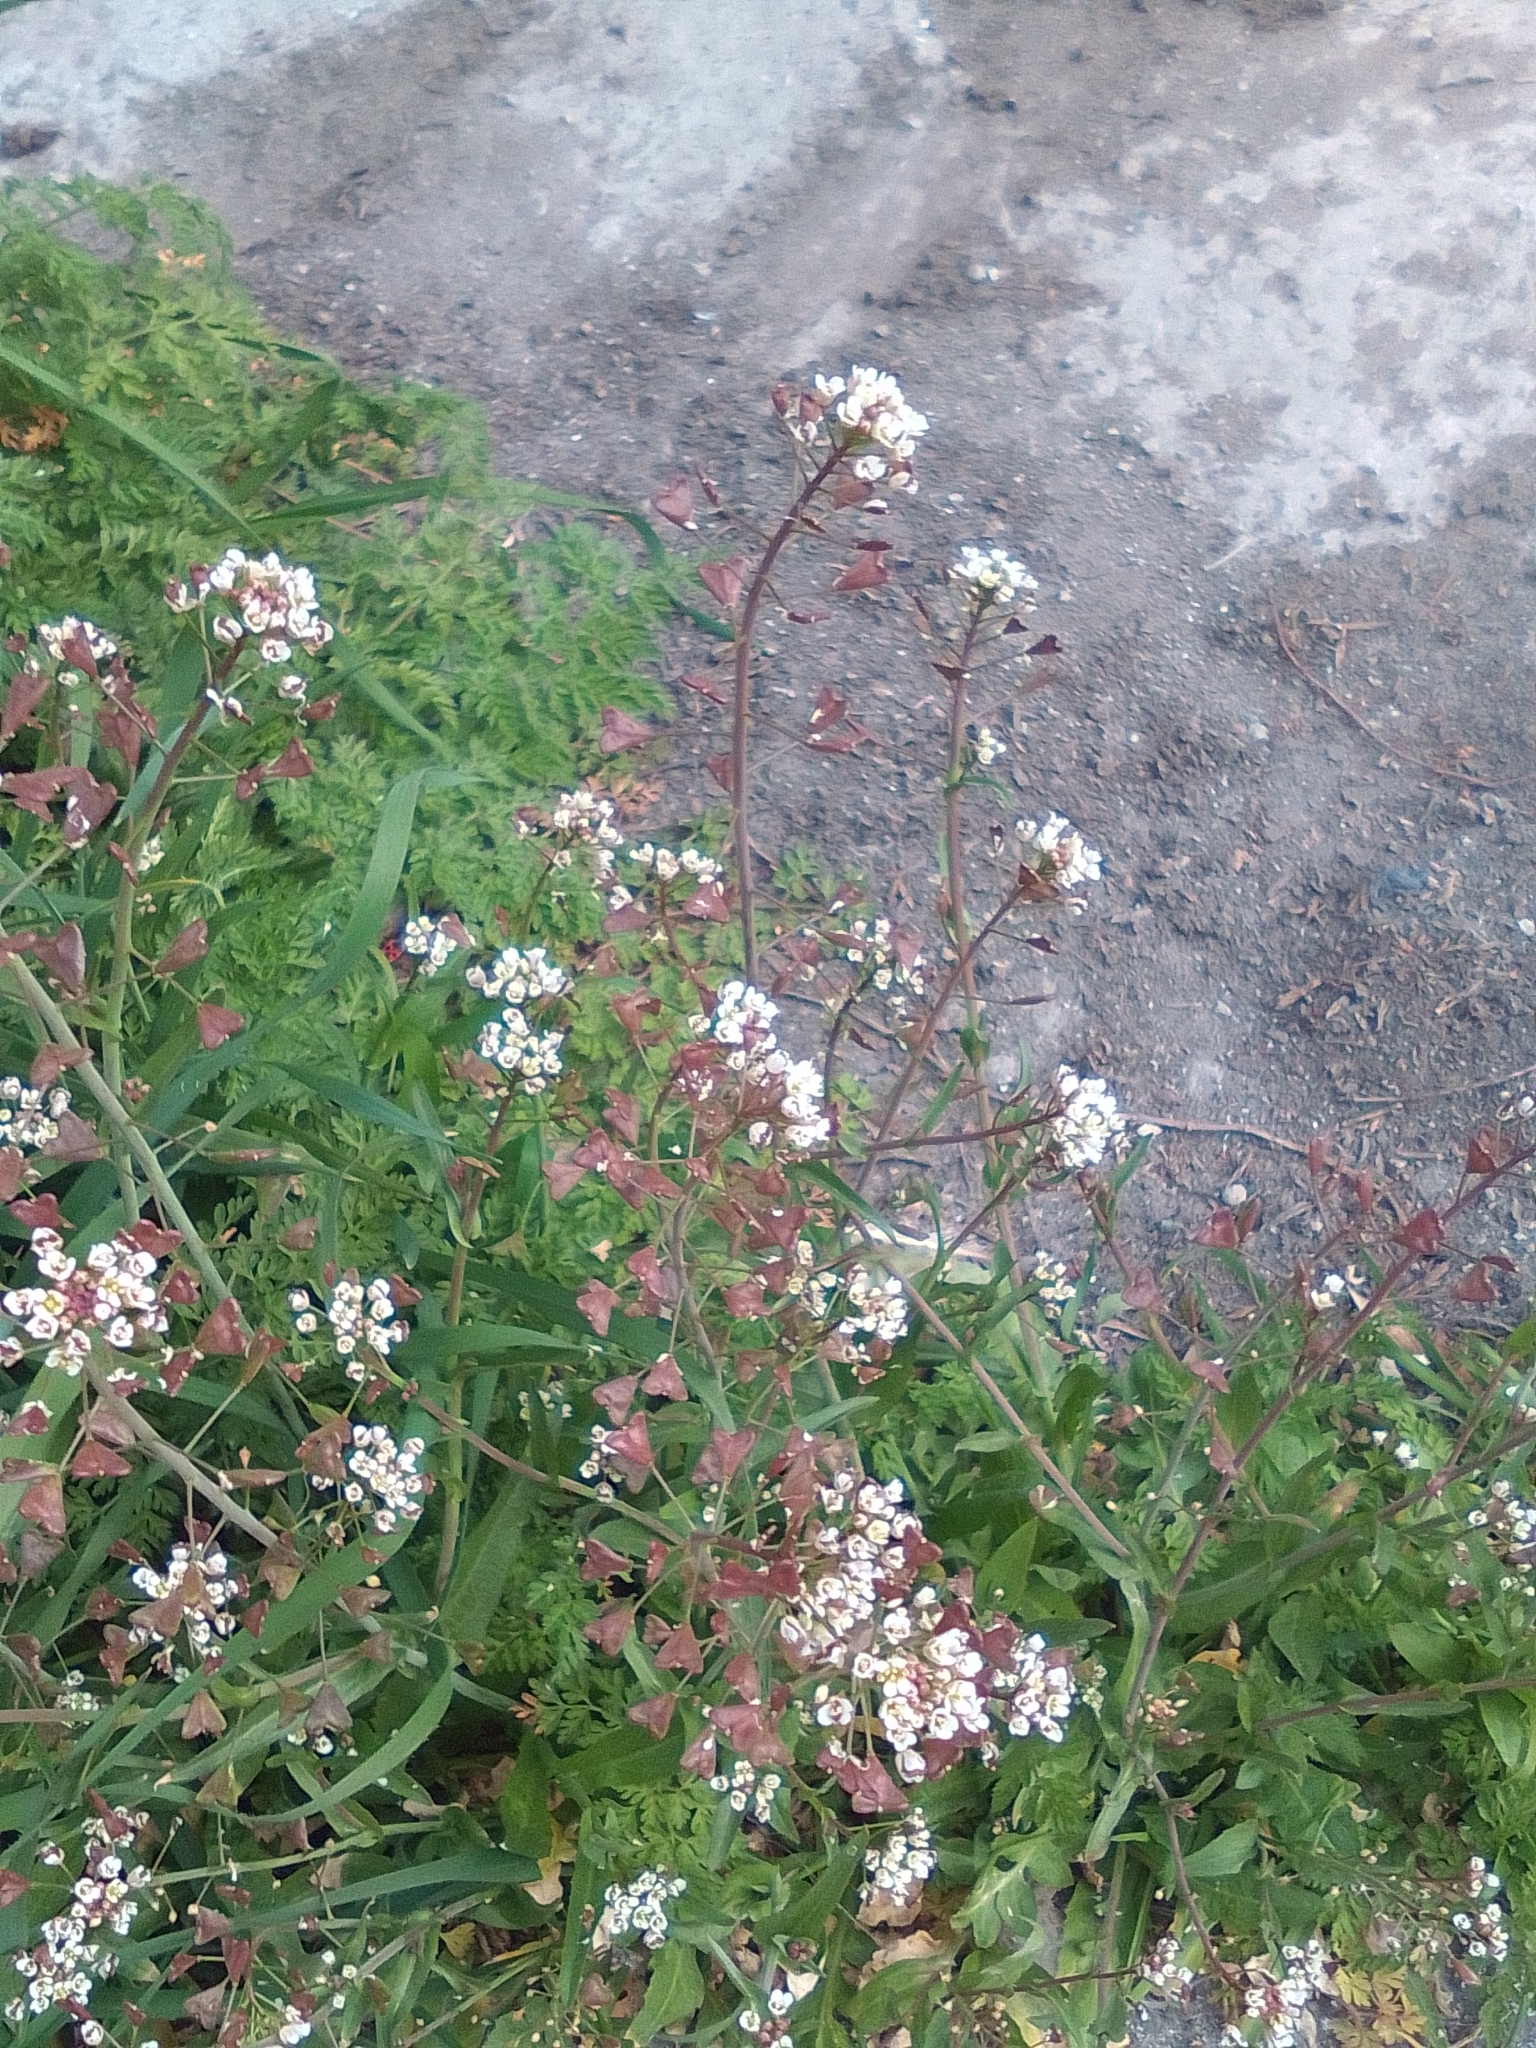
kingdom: Plantae
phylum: Tracheophyta
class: Magnoliopsida
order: Brassicales
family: Brassicaceae
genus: Capsella
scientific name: Capsella bursa-pastoris
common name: Shepherd's purse
